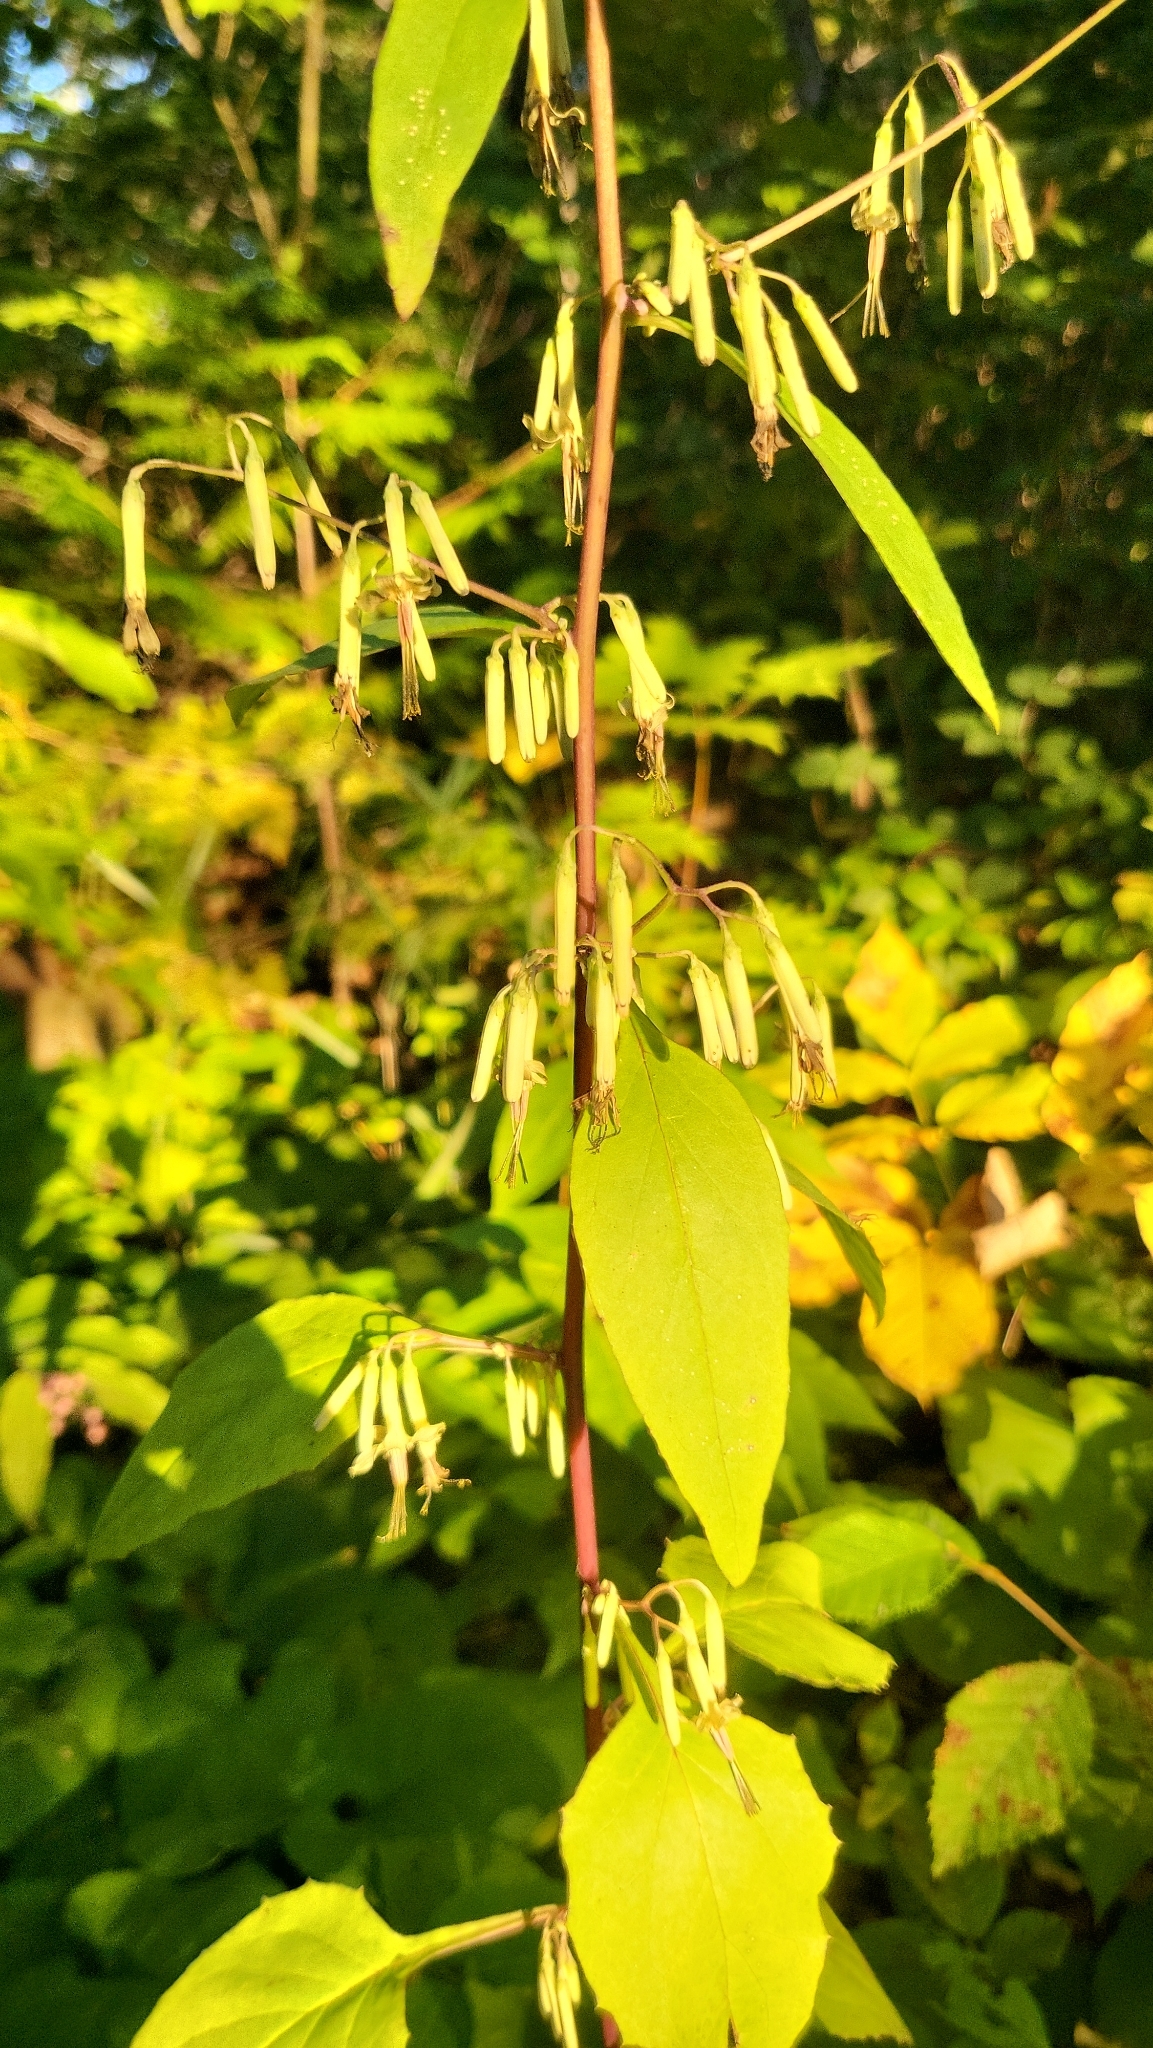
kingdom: Plantae
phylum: Tracheophyta
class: Magnoliopsida
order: Asterales
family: Asteraceae
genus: Nabalus
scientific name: Nabalus altissima
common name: Tall rattlesnakeroot
